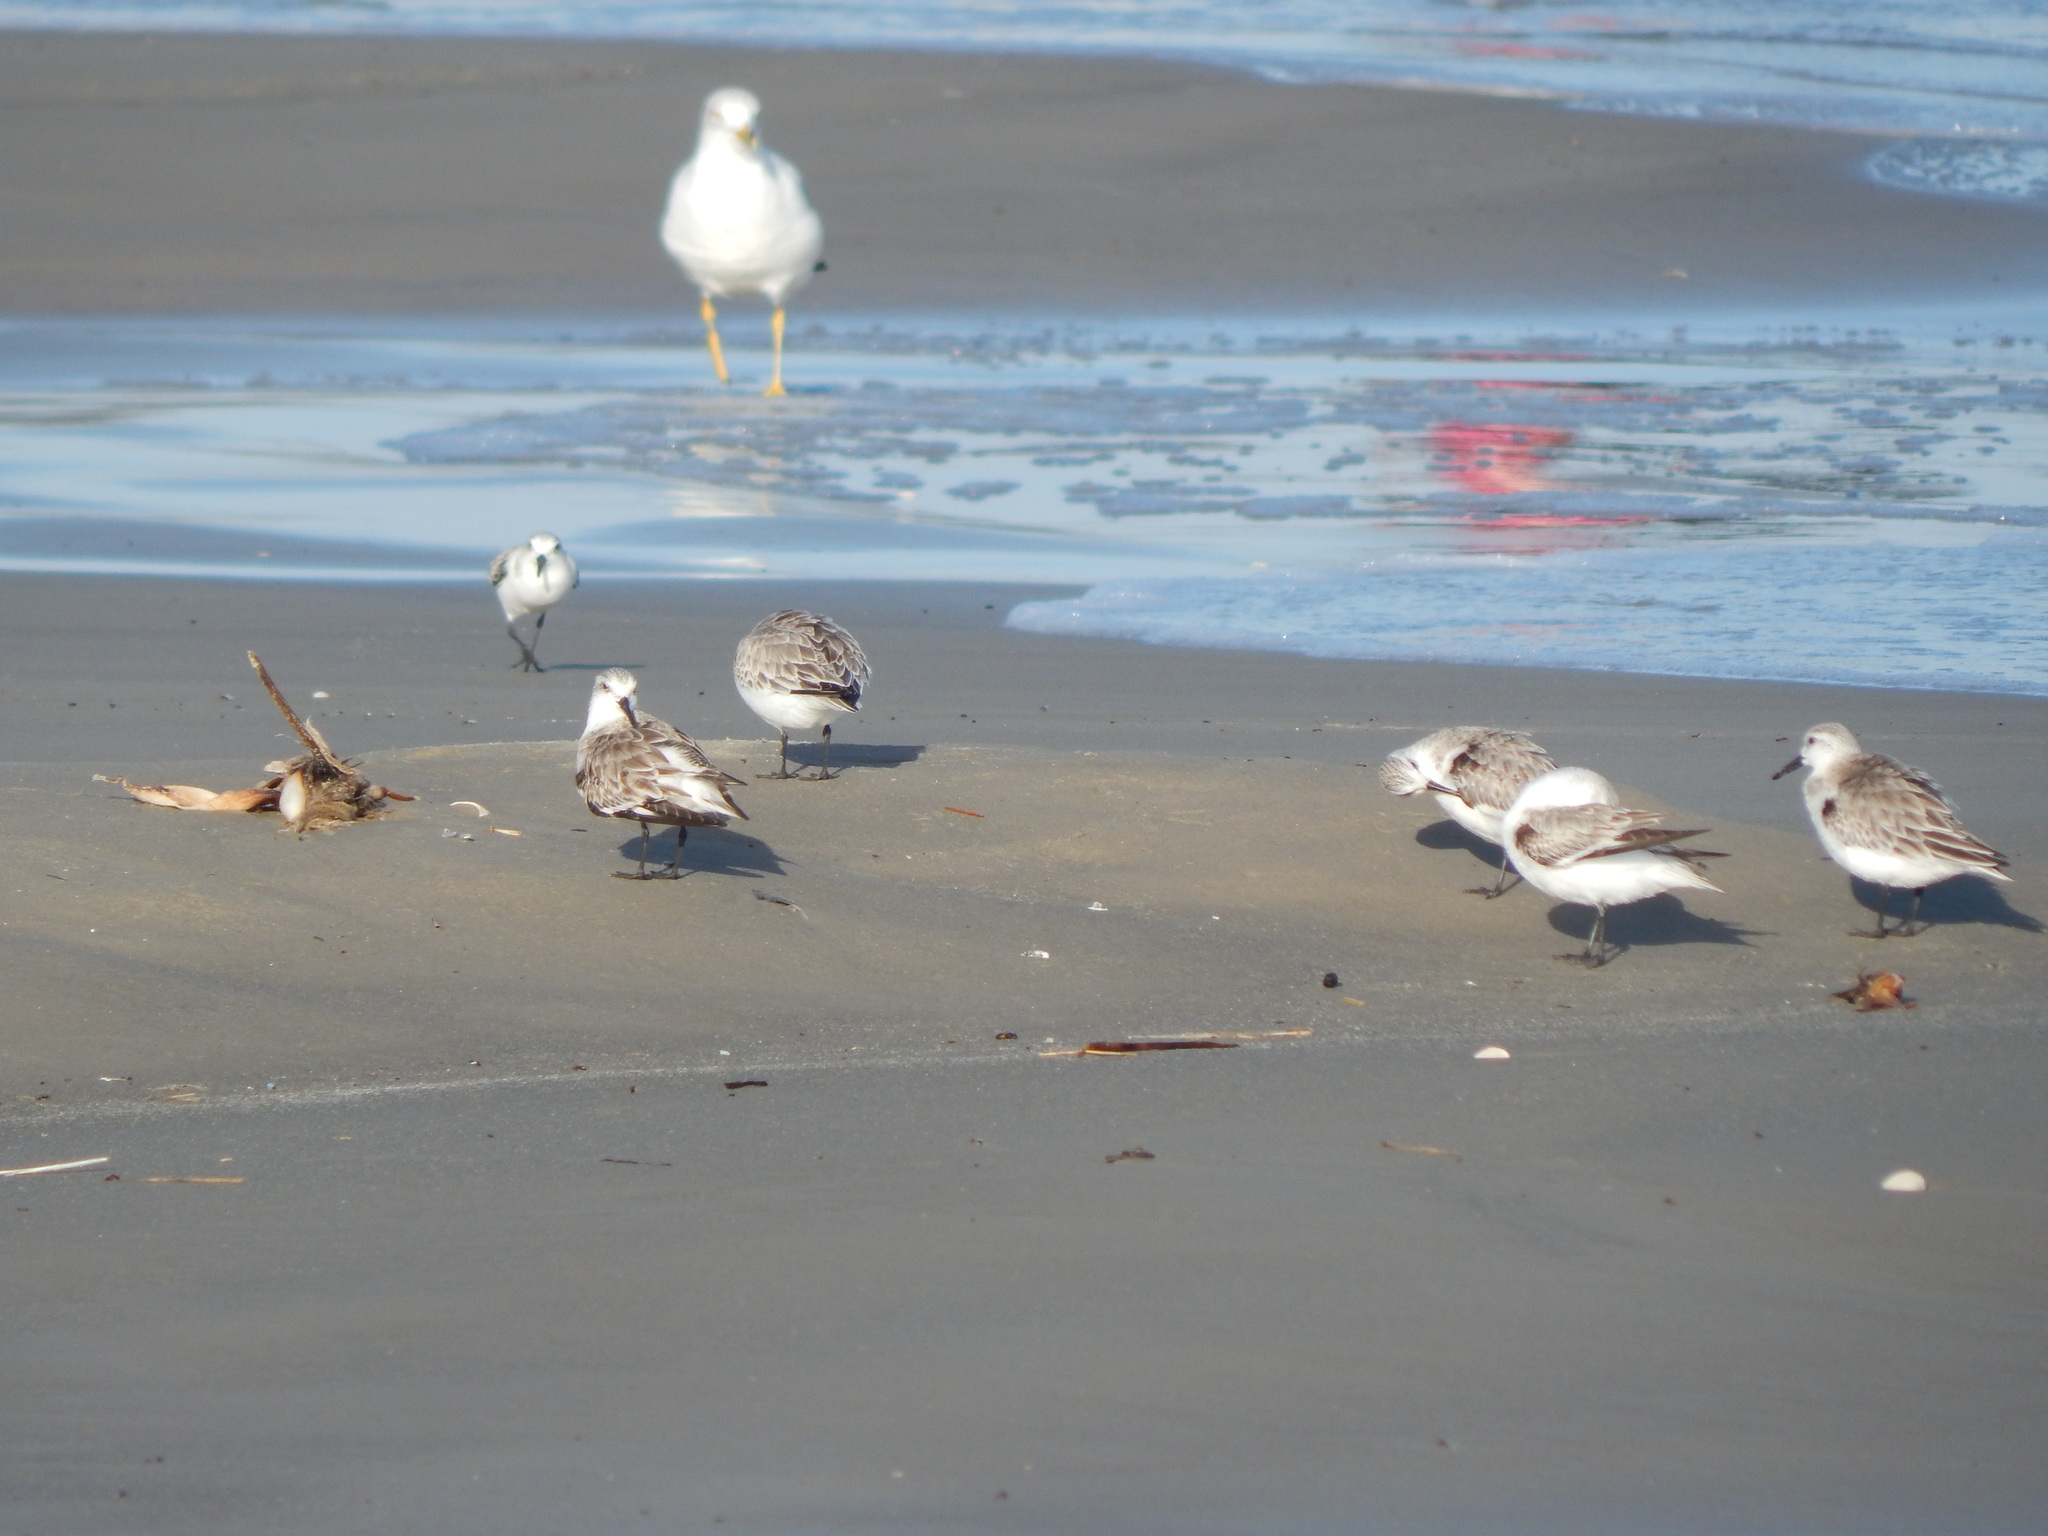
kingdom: Animalia
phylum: Chordata
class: Aves
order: Charadriiformes
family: Scolopacidae
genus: Calidris
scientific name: Calidris alba
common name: Sanderling
